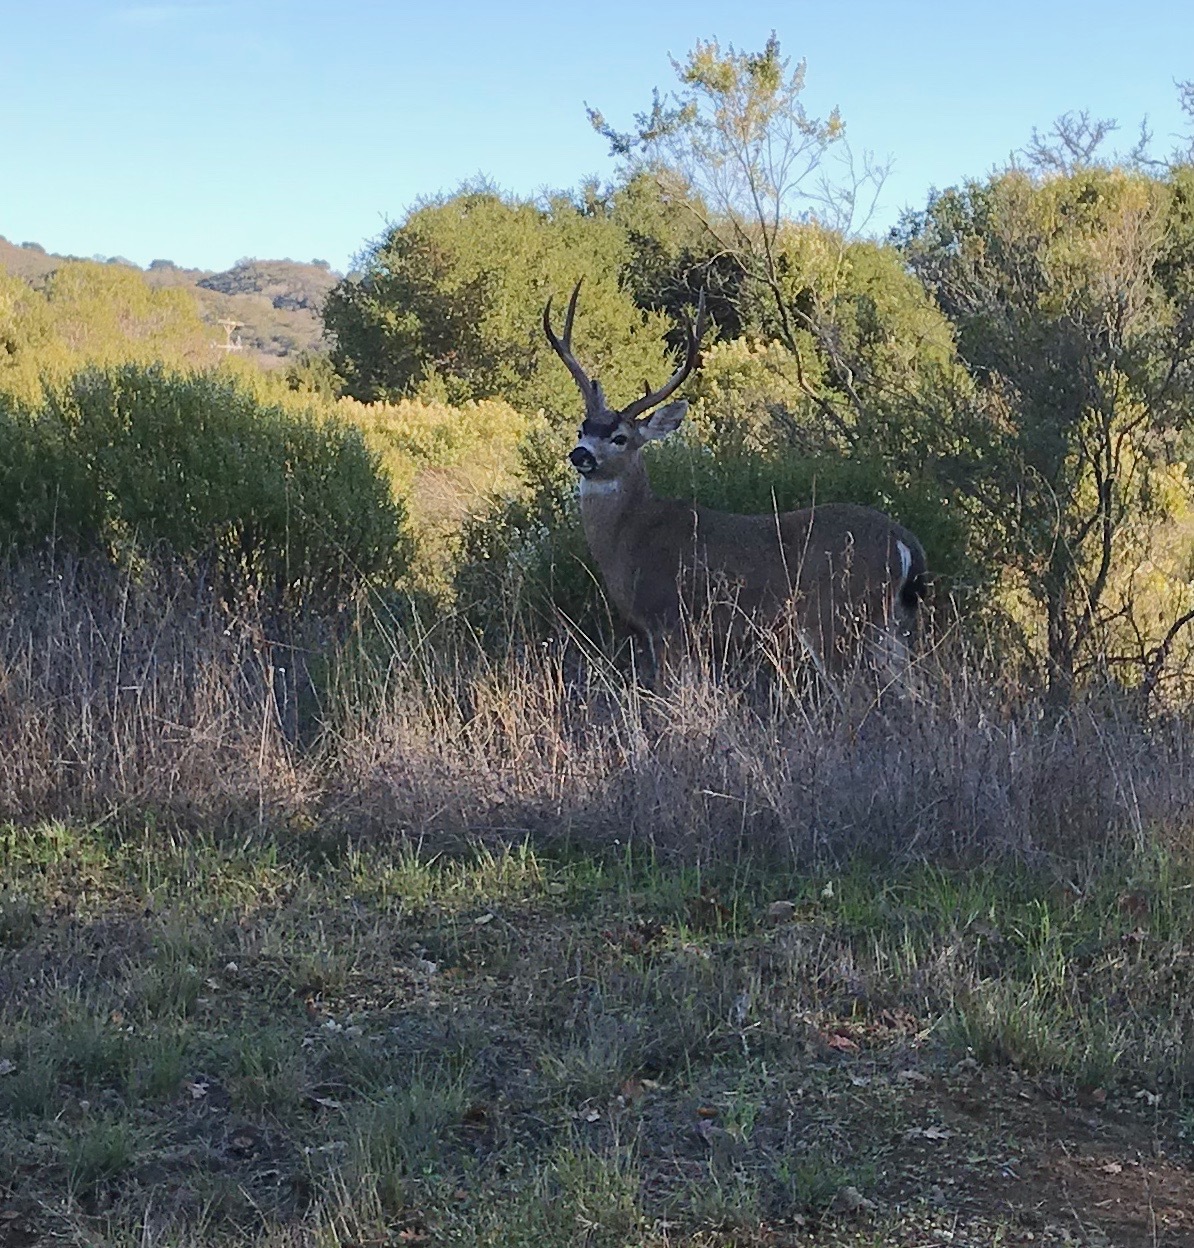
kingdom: Animalia
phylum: Chordata
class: Mammalia
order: Artiodactyla
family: Cervidae
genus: Odocoileus
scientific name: Odocoileus hemionus
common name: Mule deer
